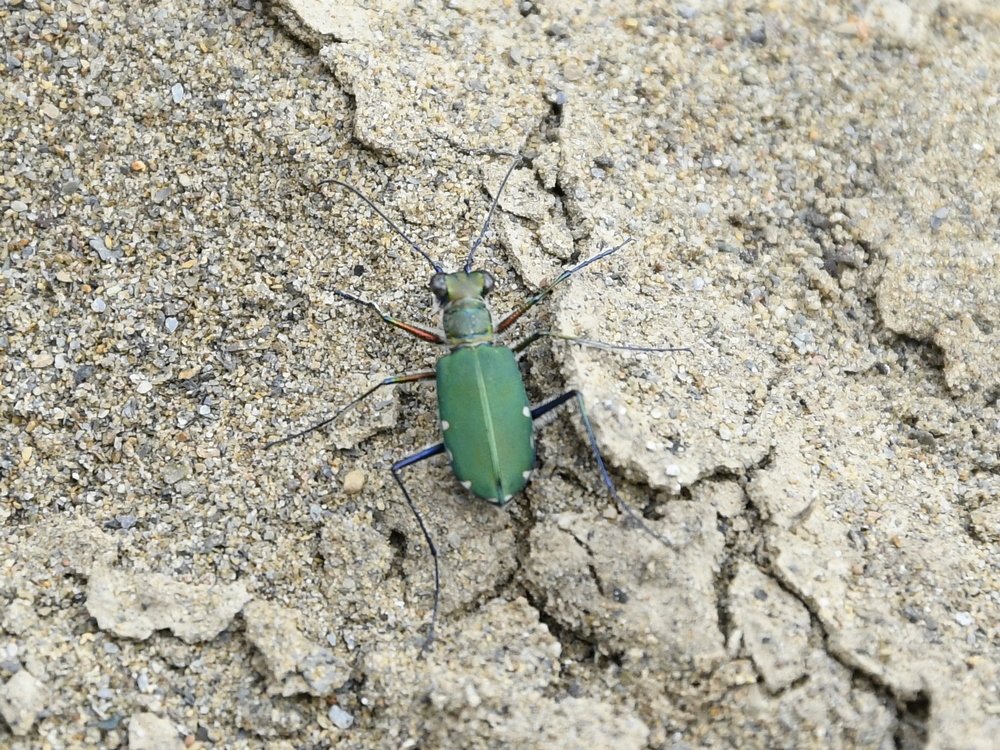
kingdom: Animalia
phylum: Arthropoda
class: Insecta
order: Coleoptera
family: Carabidae
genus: Cicindela
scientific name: Cicindela funerea
